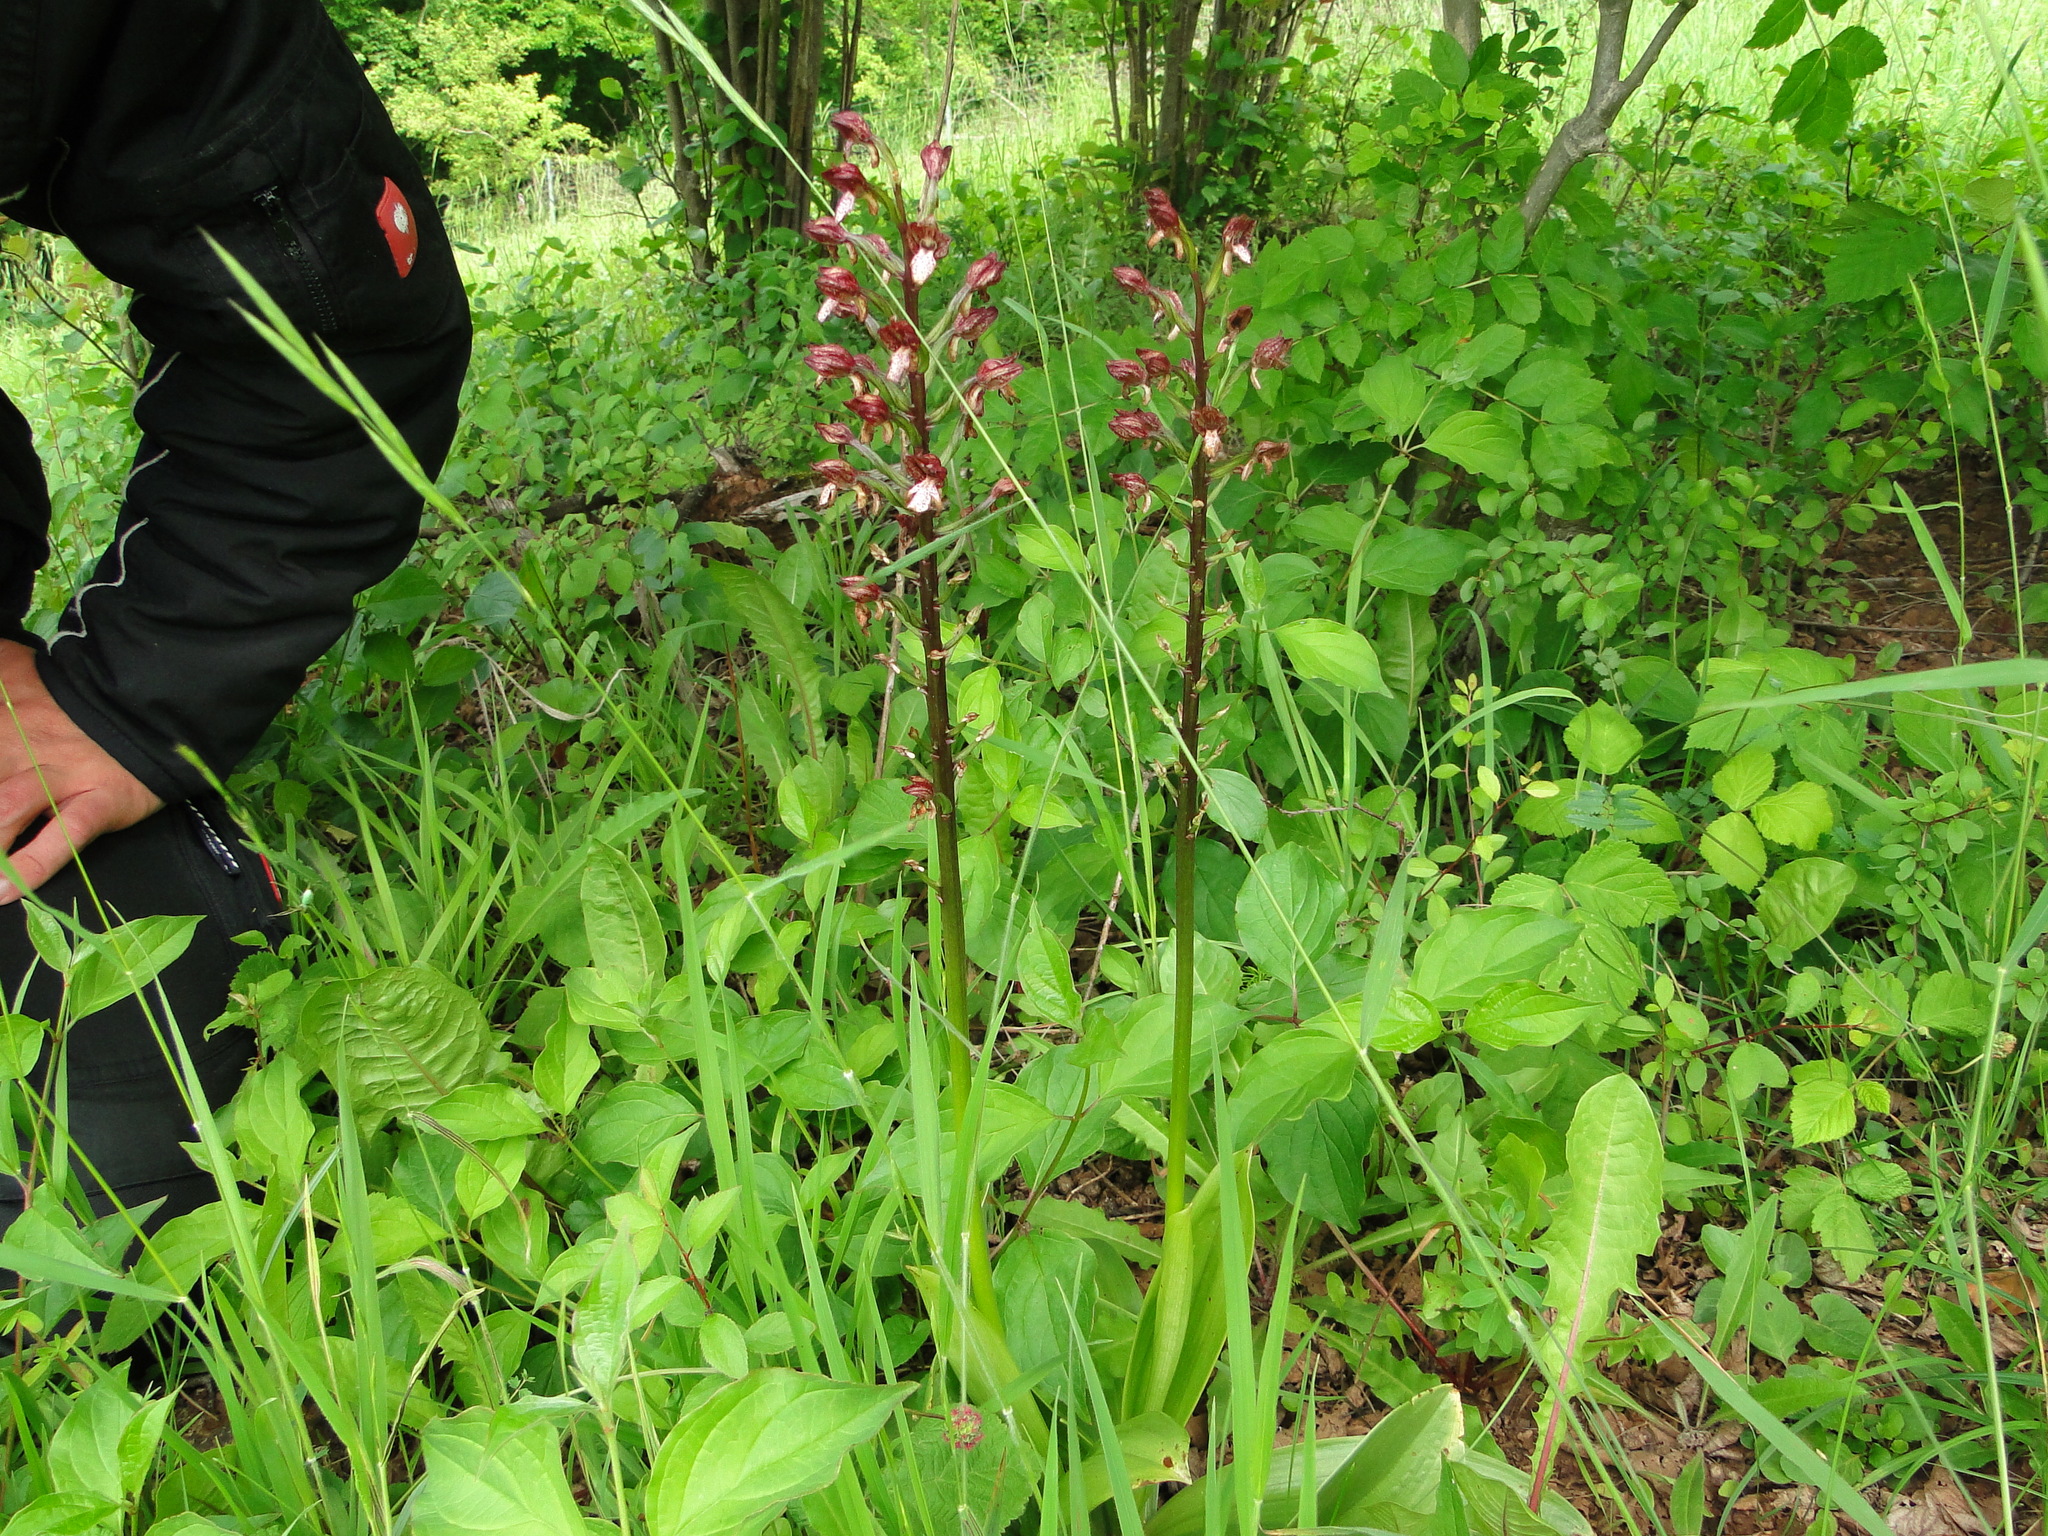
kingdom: Plantae
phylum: Tracheophyta
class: Liliopsida
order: Asparagales
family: Orchidaceae
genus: Orchis
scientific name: Orchis purpurea
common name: Lady orchid
